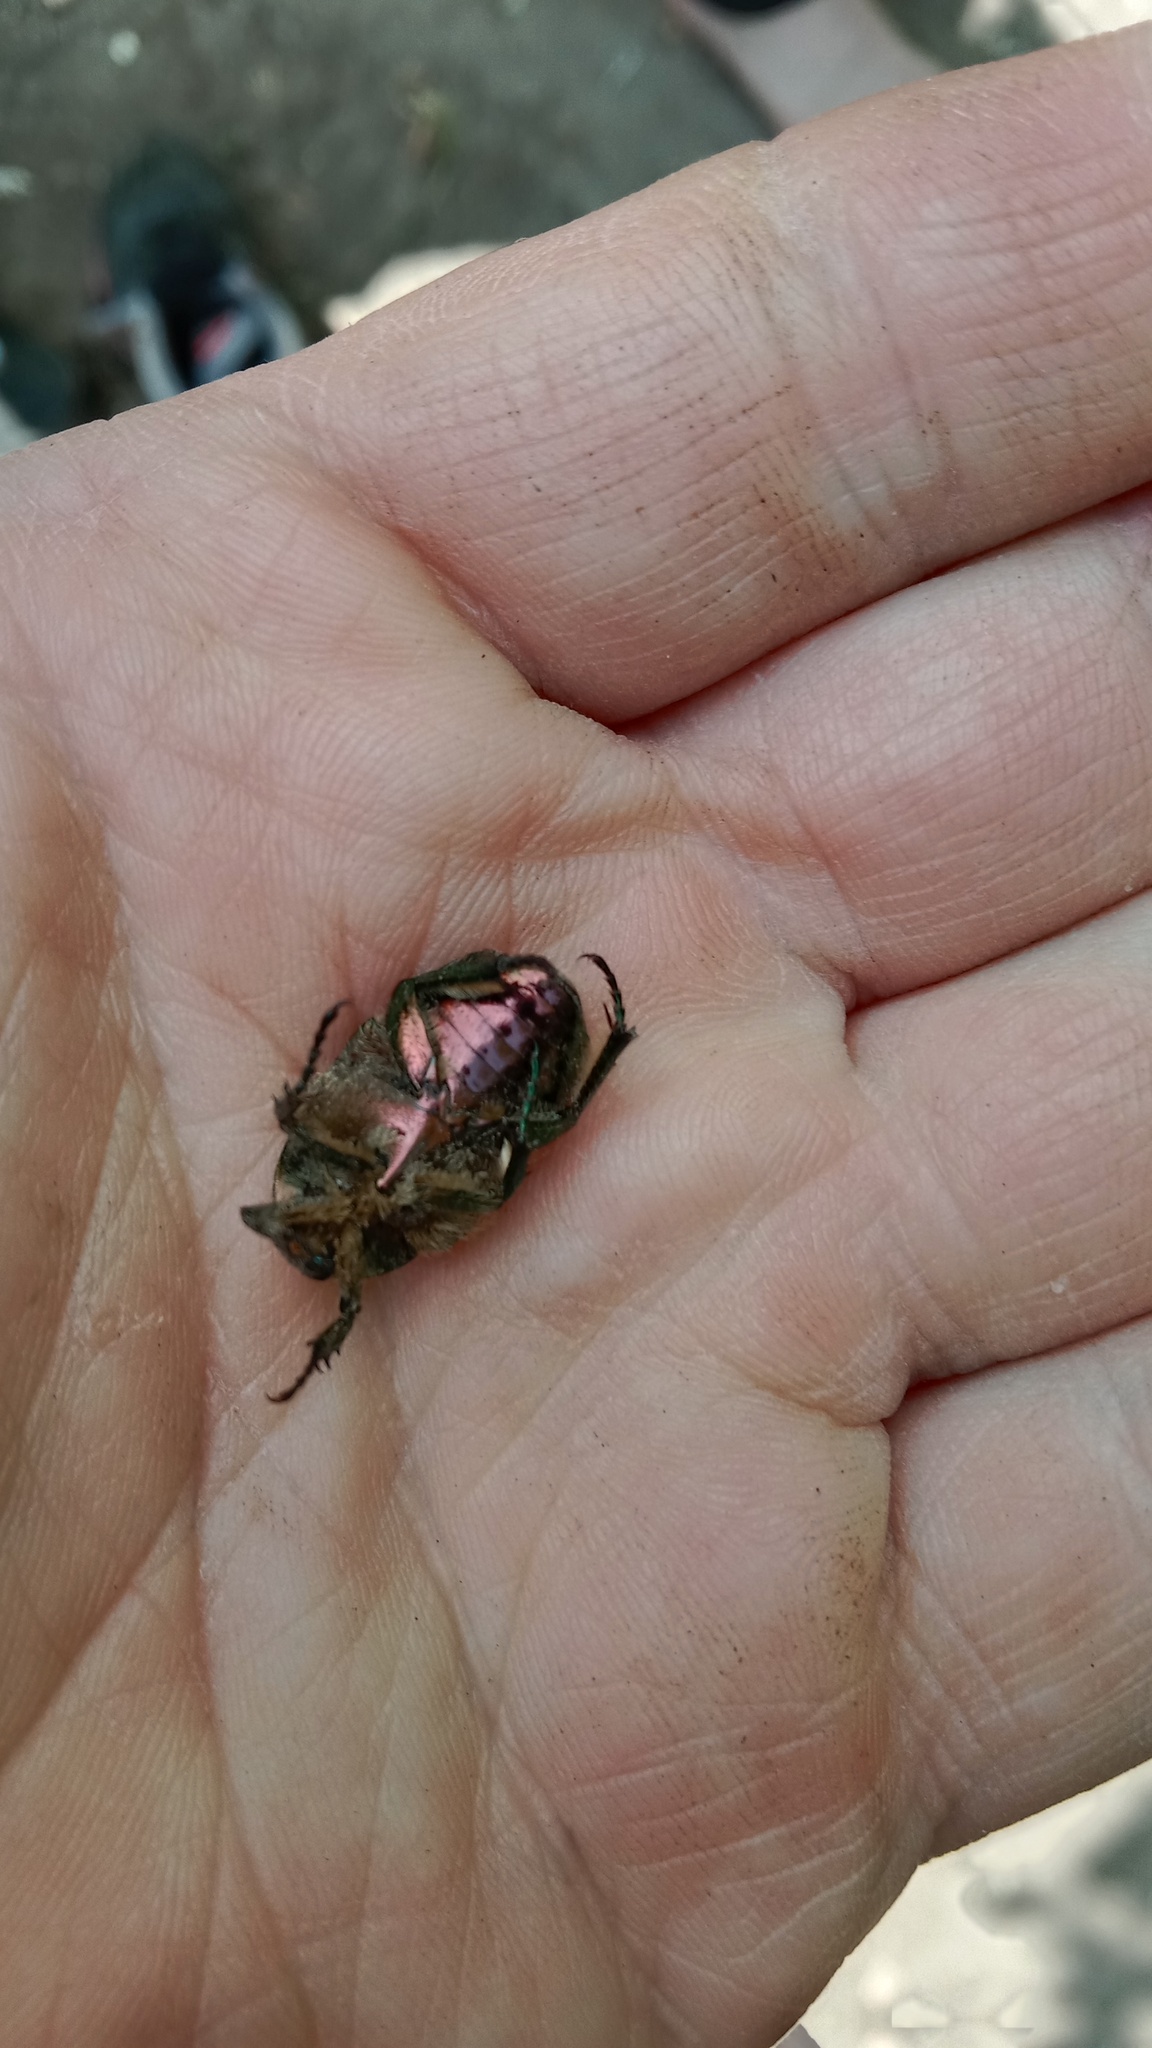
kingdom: Animalia
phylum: Arthropoda
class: Insecta
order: Coleoptera
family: Scarabaeidae
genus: Cetonia
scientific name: Cetonia aurata
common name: Rose chafer
